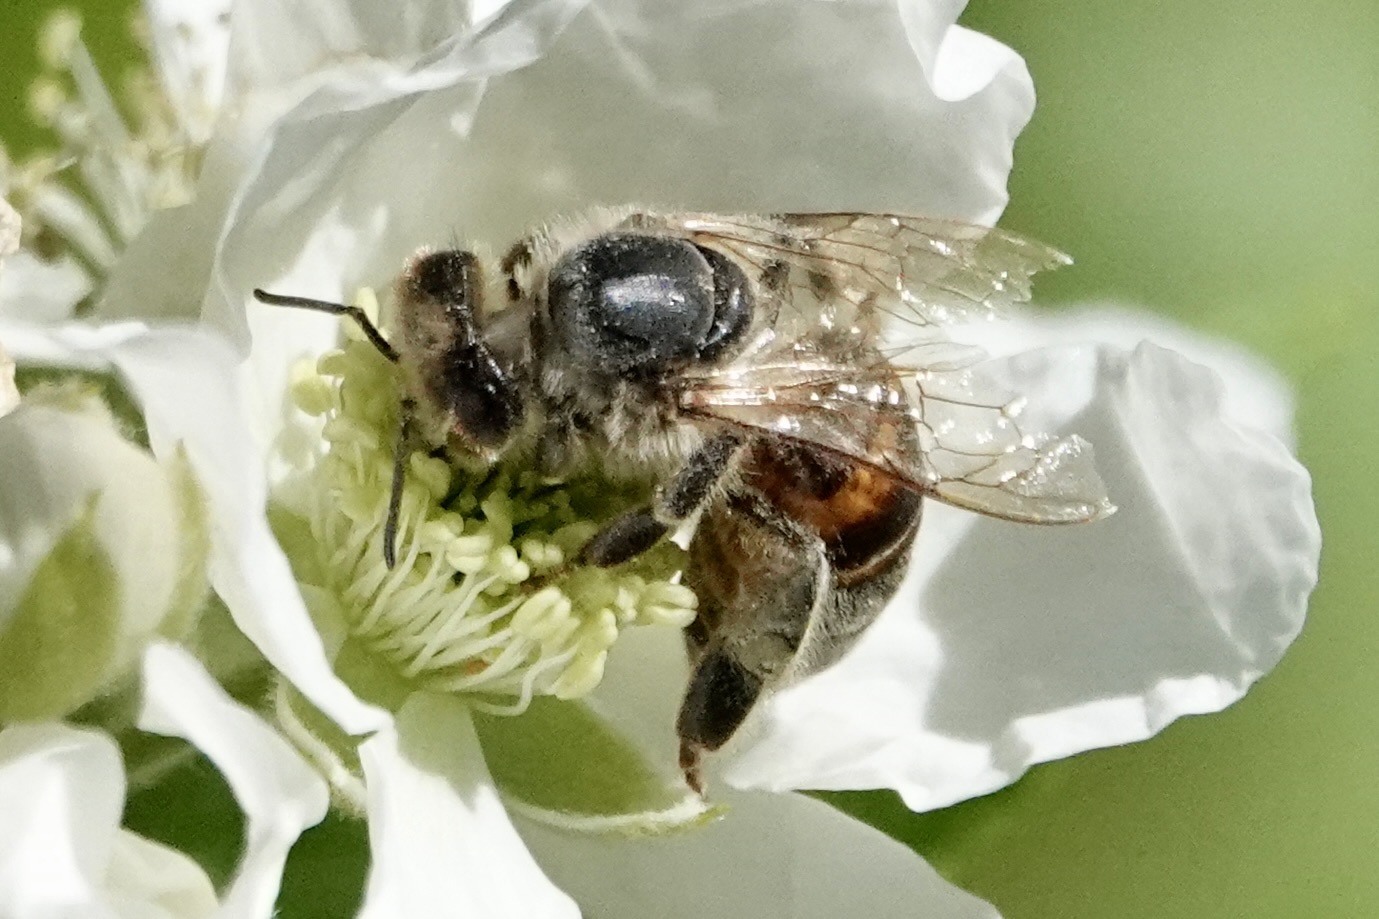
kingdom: Animalia
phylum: Arthropoda
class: Insecta
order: Hymenoptera
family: Apidae
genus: Apis
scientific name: Apis mellifera
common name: Honey bee
